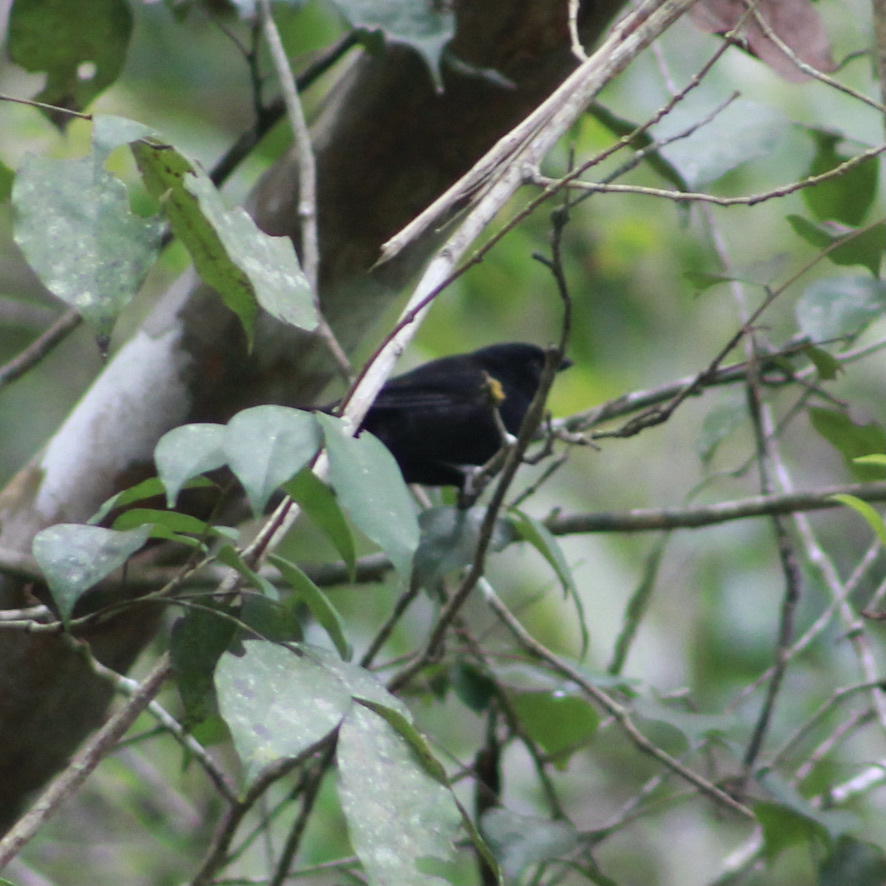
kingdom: Animalia
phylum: Chordata
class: Aves
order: Passeriformes
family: Thraupidae
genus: Loxigilla
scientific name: Loxigilla noctis
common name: Lesser antillean bullfinch
